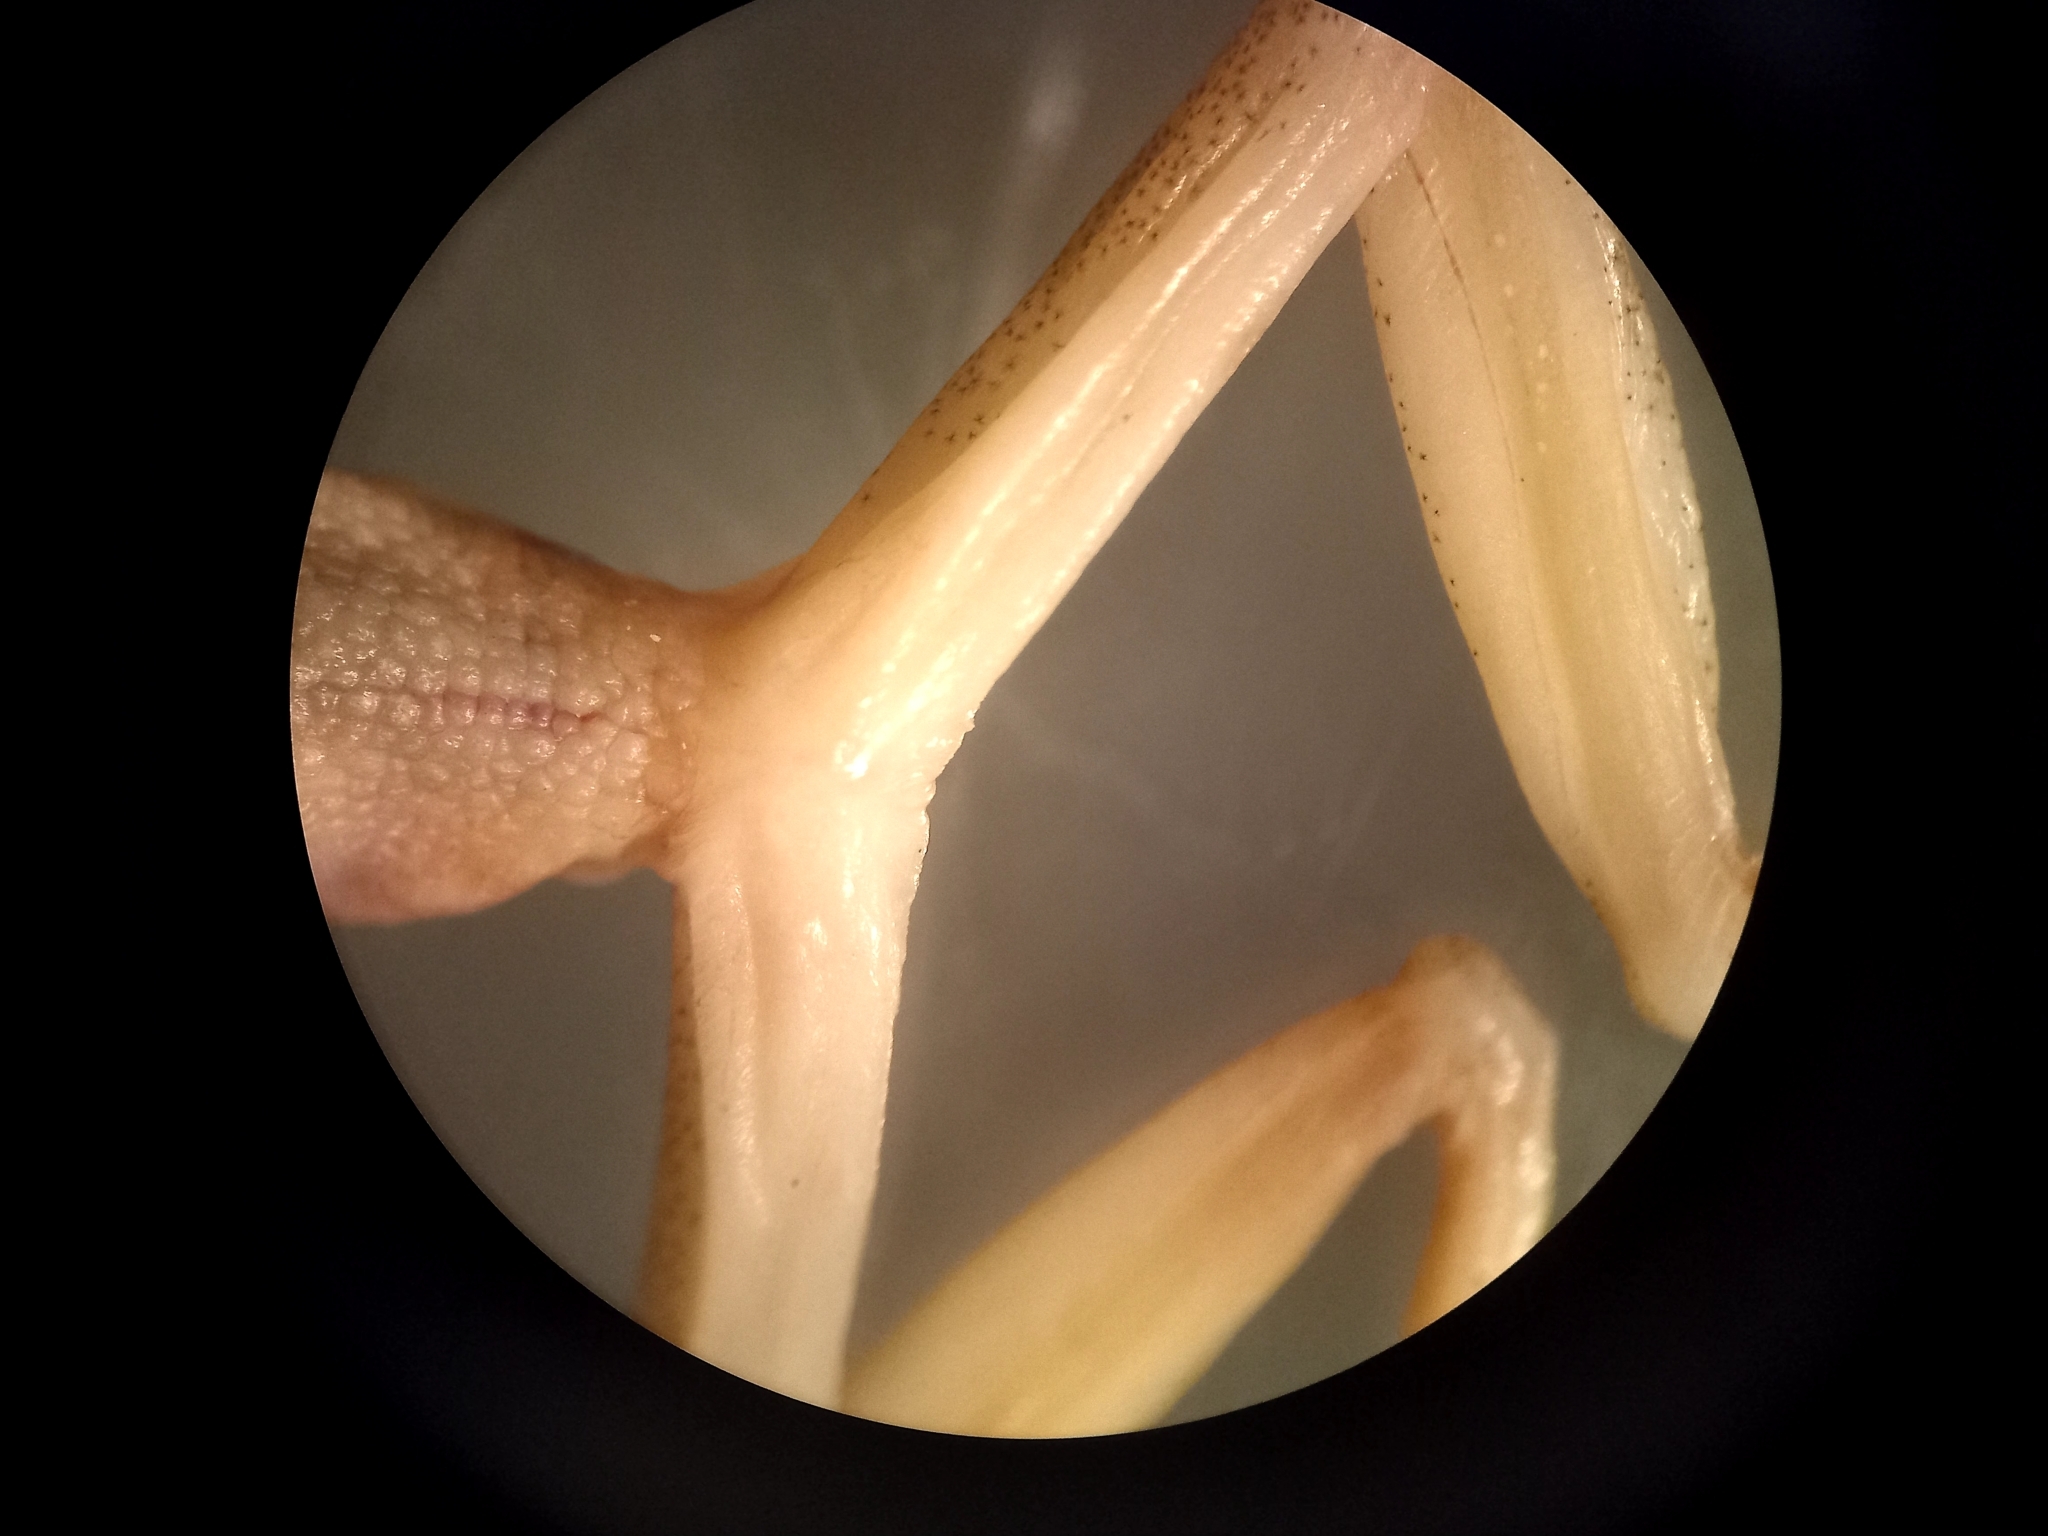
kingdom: Animalia
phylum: Chordata
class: Amphibia
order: Anura
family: Hylidae
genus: Dendropsophus
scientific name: Dendropsophus nanus
